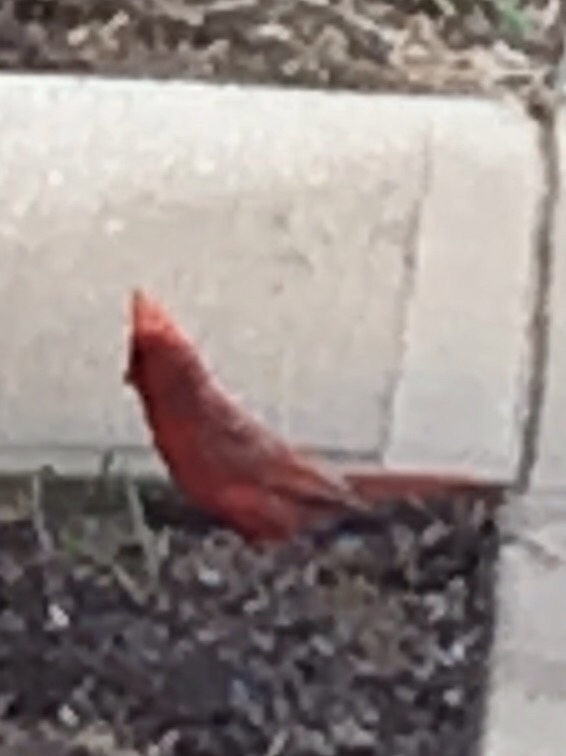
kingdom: Animalia
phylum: Chordata
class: Aves
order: Passeriformes
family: Cardinalidae
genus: Cardinalis
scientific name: Cardinalis cardinalis
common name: Northern cardinal
